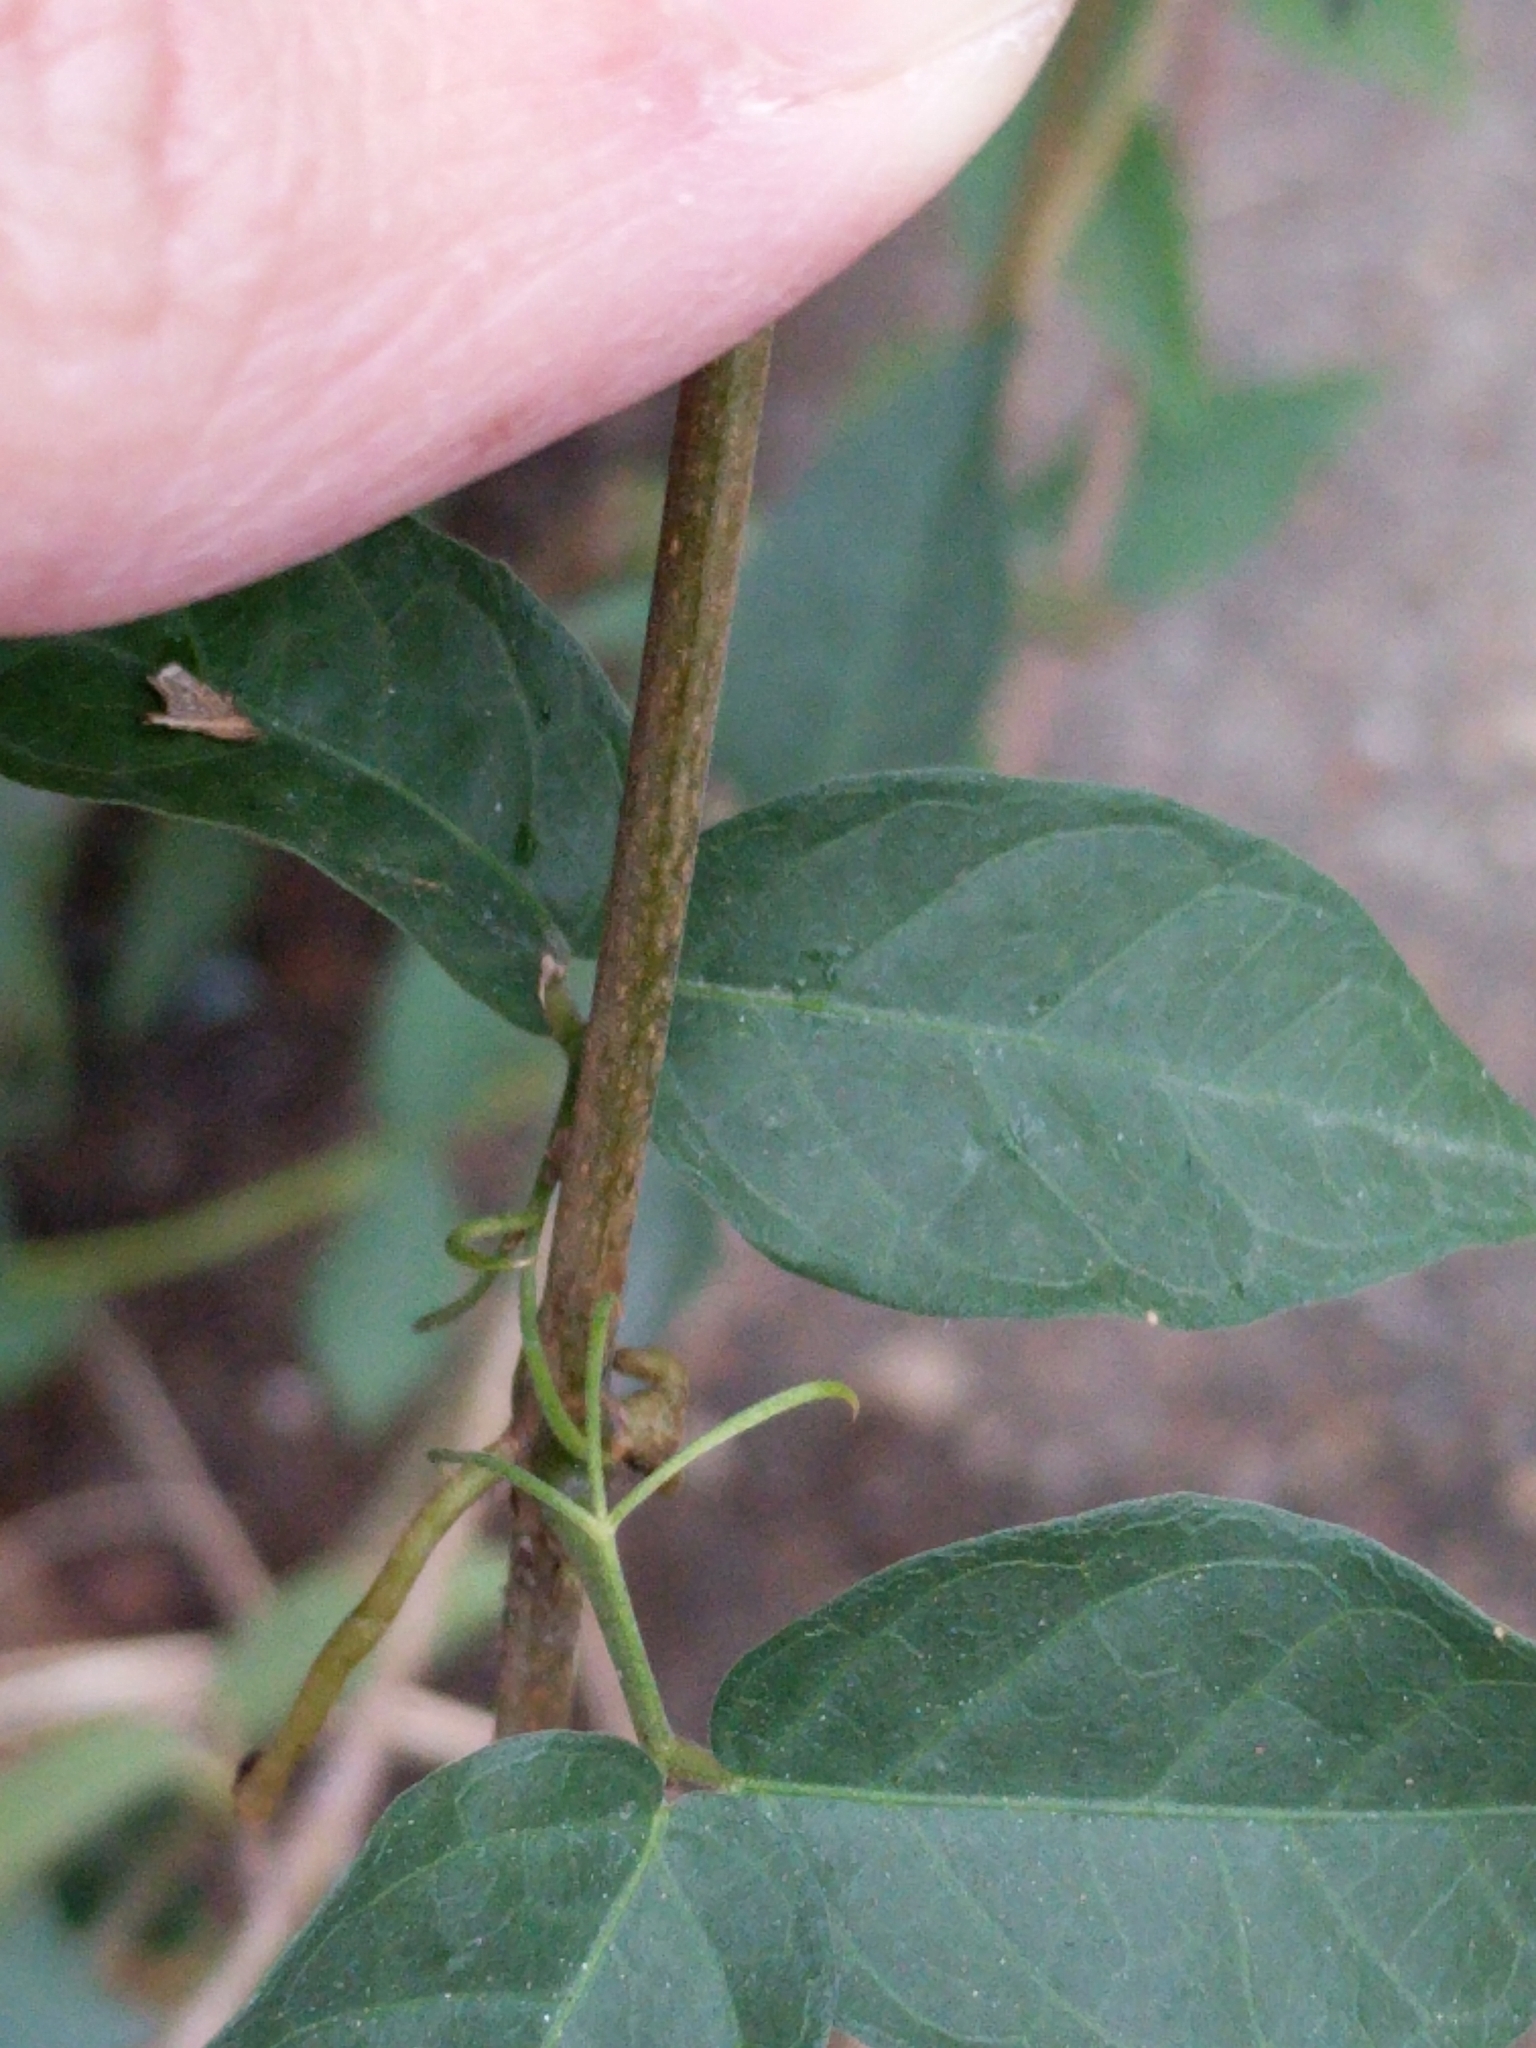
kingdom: Plantae
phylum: Tracheophyta
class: Magnoliopsida
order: Lamiales
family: Bignoniaceae
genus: Dolichandra
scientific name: Dolichandra unguis-cati
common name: Catclaw vine
